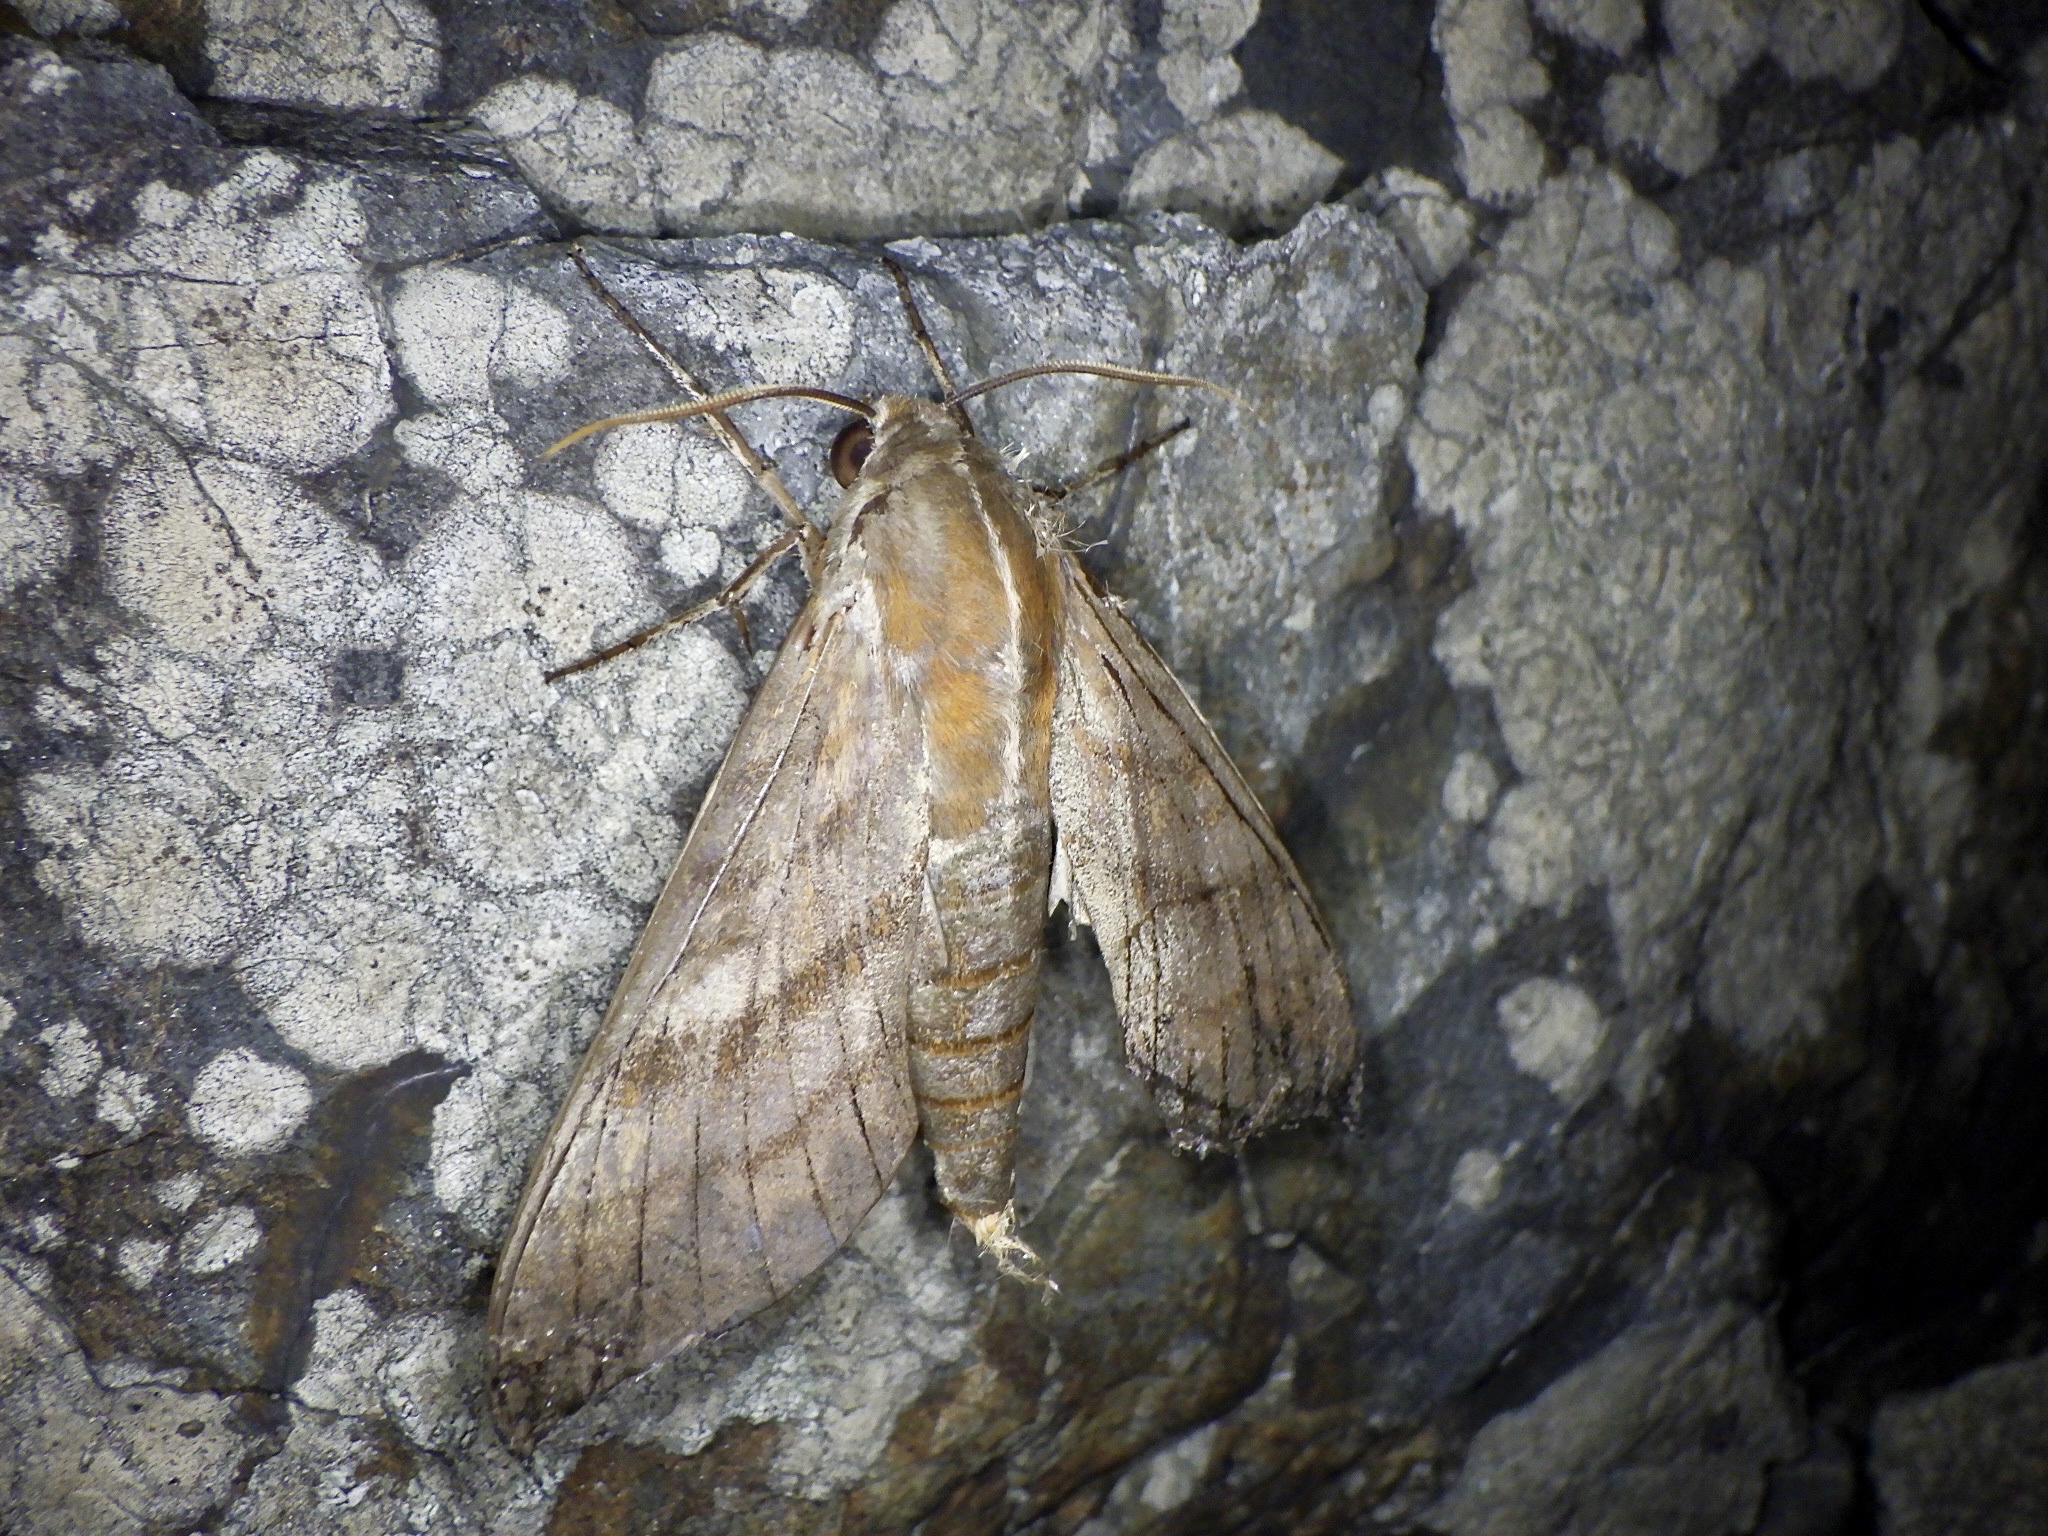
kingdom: Animalia
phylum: Arthropoda
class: Insecta
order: Lepidoptera
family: Sphingidae
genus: Ampelophaga
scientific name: Ampelophaga rubiginosa
